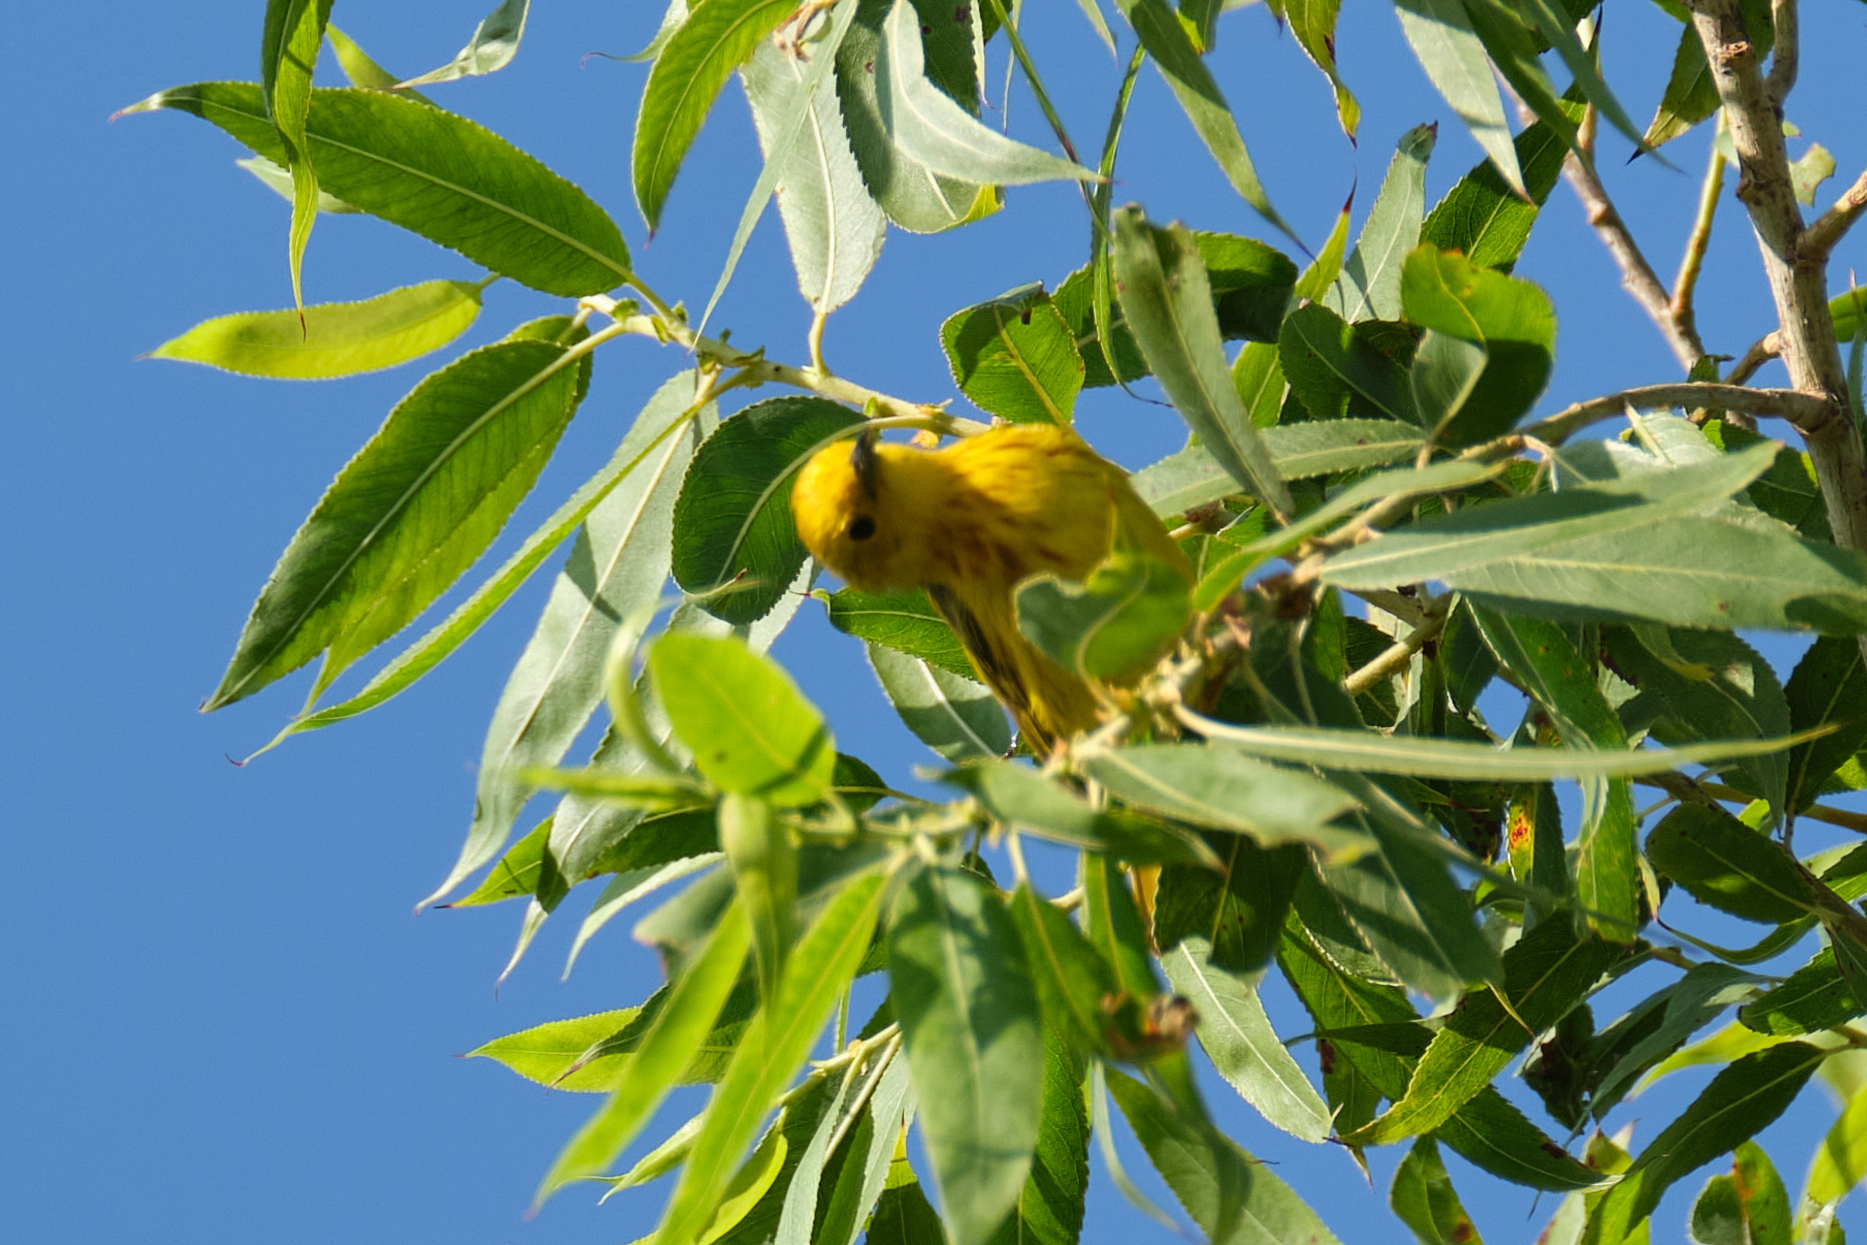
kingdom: Animalia
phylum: Chordata
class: Aves
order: Passeriformes
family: Parulidae
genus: Setophaga
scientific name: Setophaga petechia
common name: Yellow warbler
